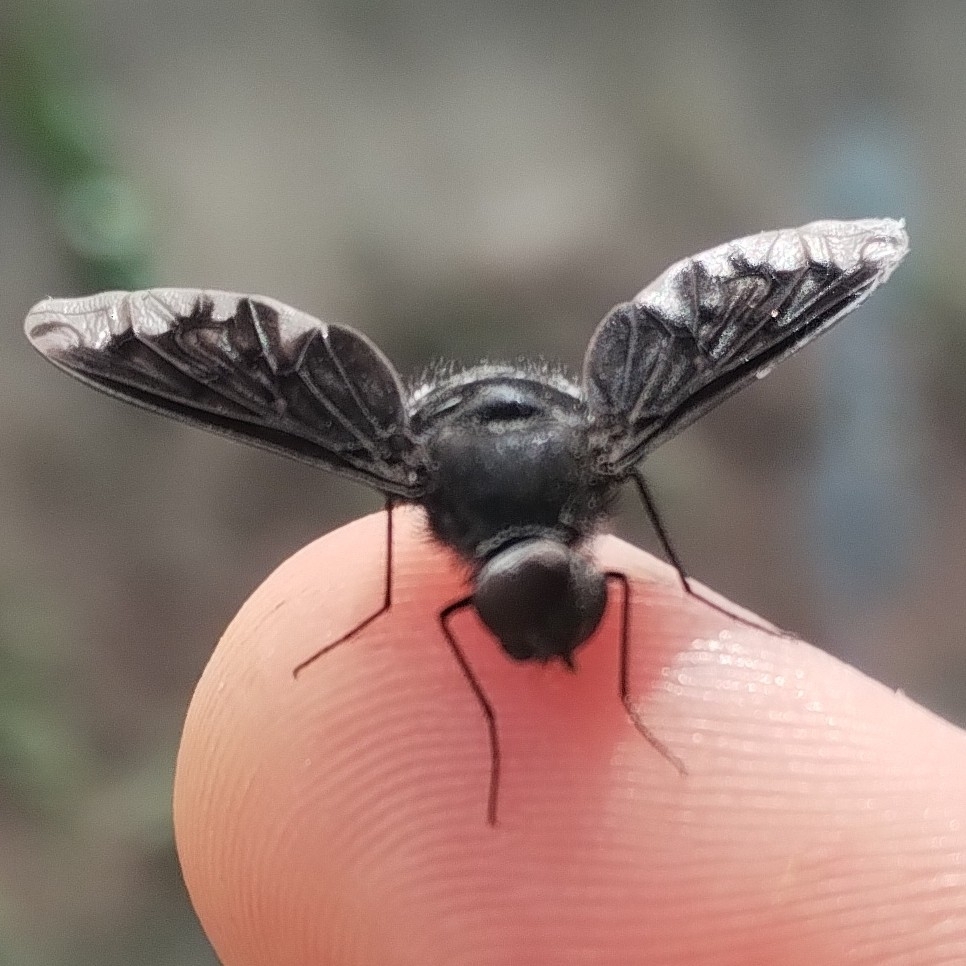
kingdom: Animalia
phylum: Arthropoda
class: Insecta
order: Diptera
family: Bombyliidae
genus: Anthrax
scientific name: Anthrax anthrax
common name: Anthracite bee-fly
